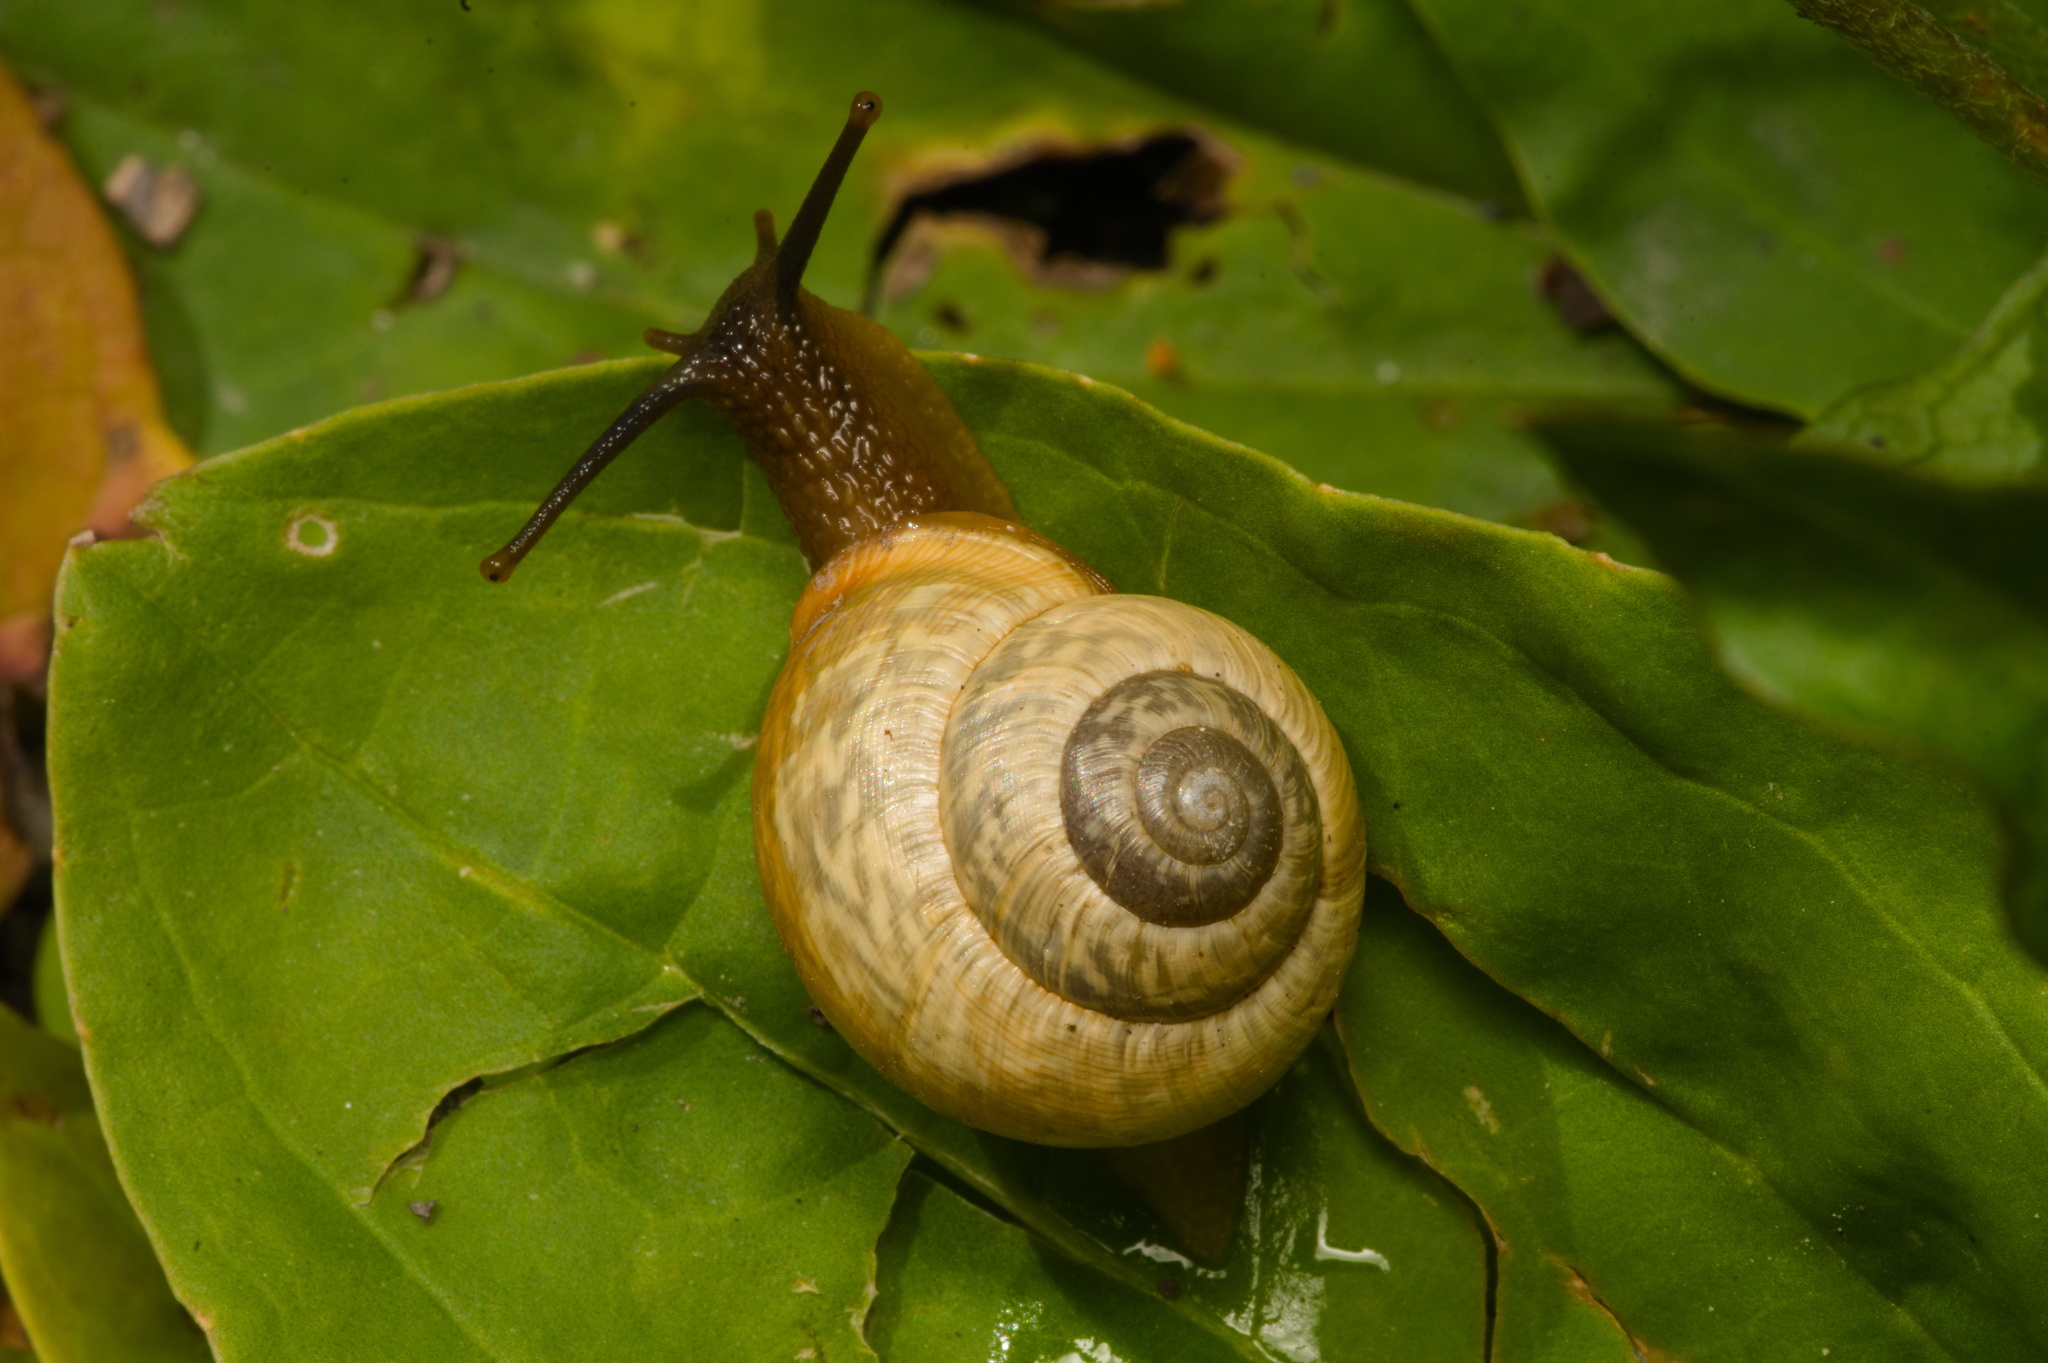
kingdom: Animalia
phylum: Mollusca
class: Gastropoda
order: Stylommatophora
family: Helicidae
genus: Arianta
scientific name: Arianta arbustorum
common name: Copse snail
